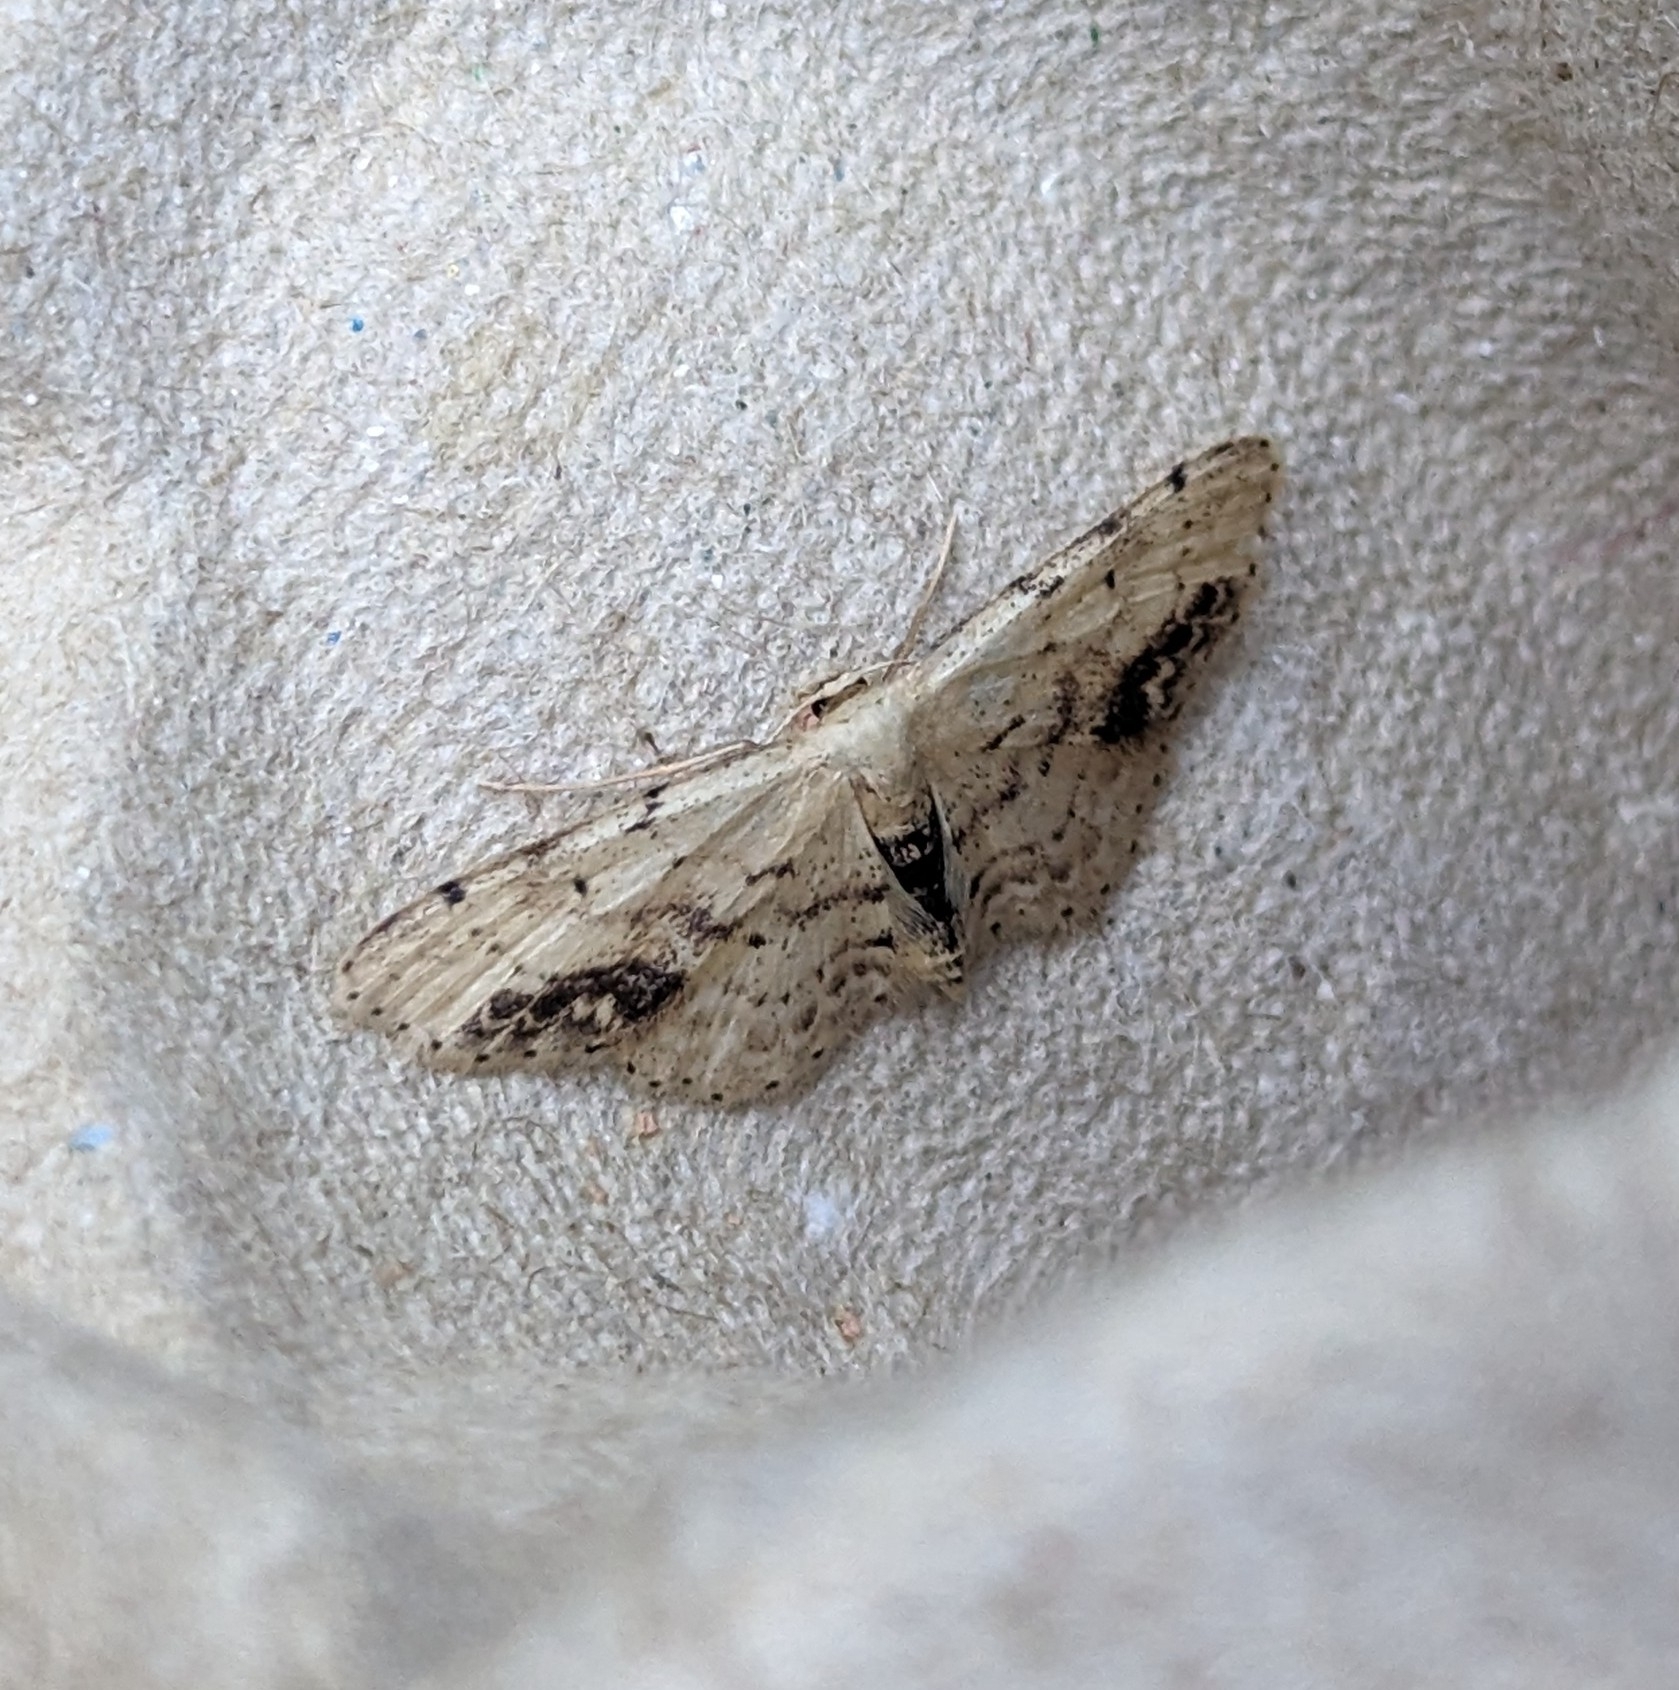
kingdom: Animalia
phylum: Arthropoda
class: Insecta
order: Lepidoptera
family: Geometridae
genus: Idaea
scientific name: Idaea dimidiata
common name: Single-dotted wave
